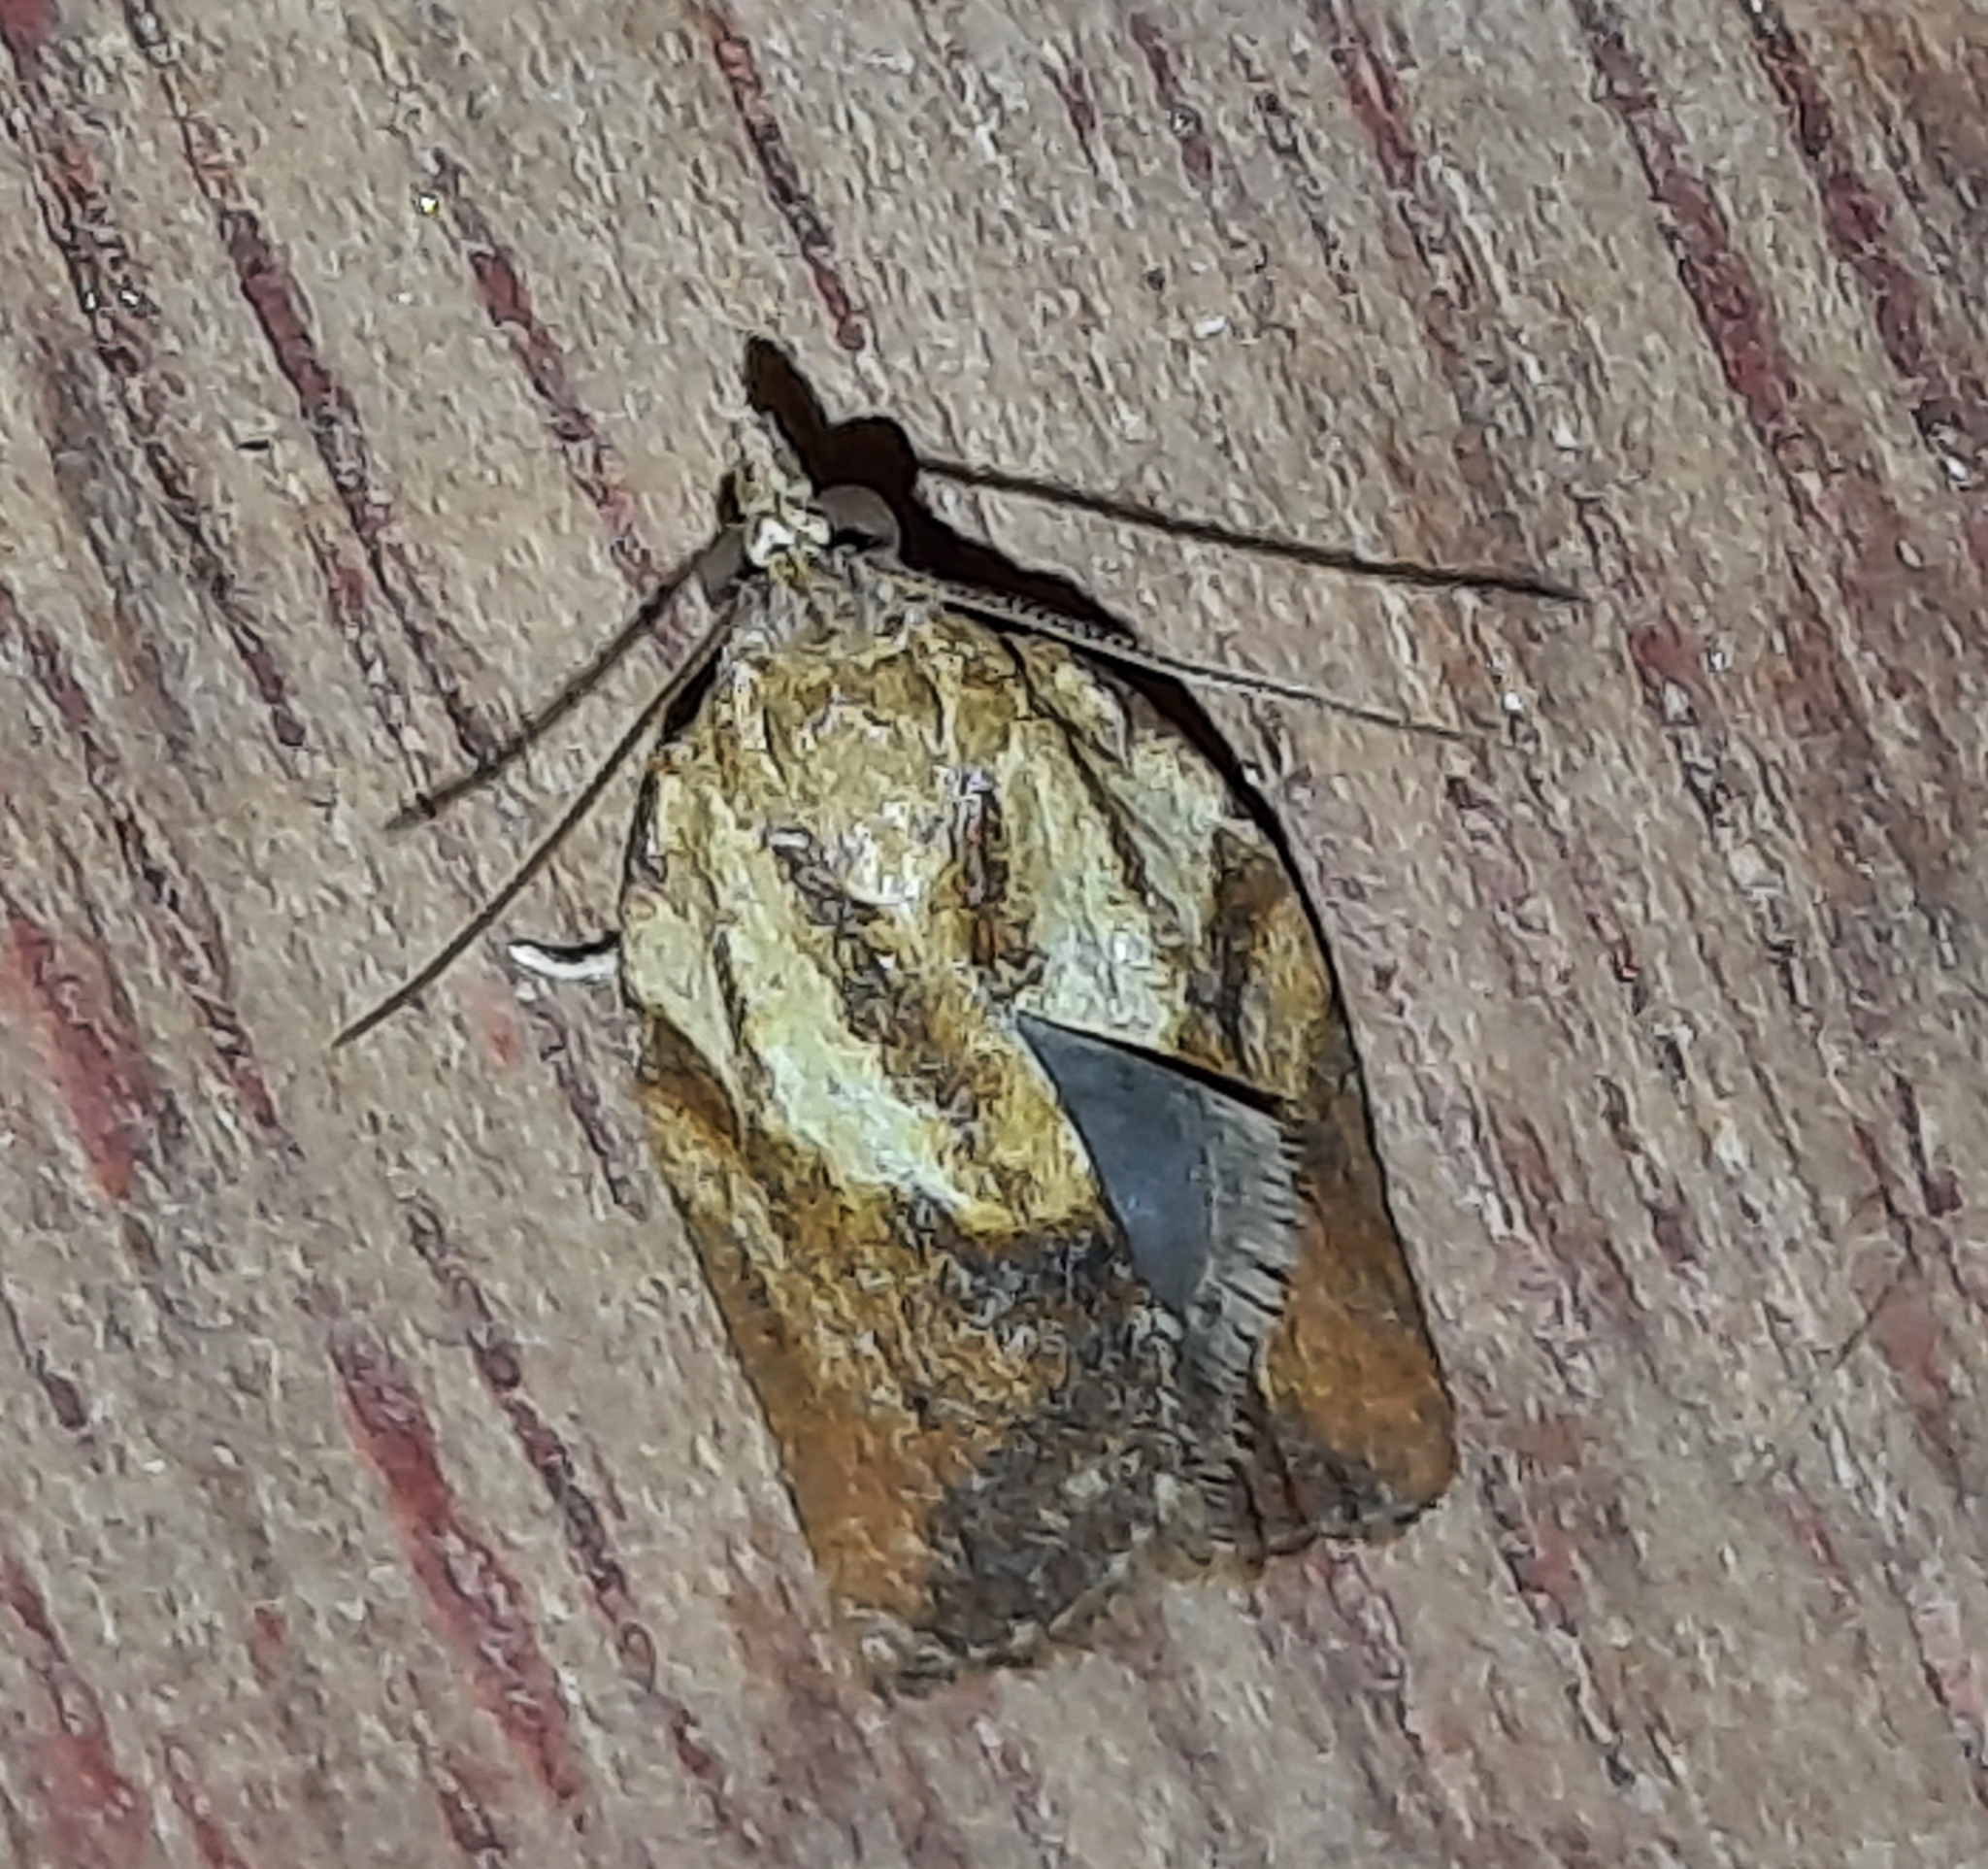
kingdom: Animalia
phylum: Arthropoda
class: Insecta
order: Lepidoptera
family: Tortricidae
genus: Epiphyas
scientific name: Epiphyas postvittana
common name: Light brown apple moth
